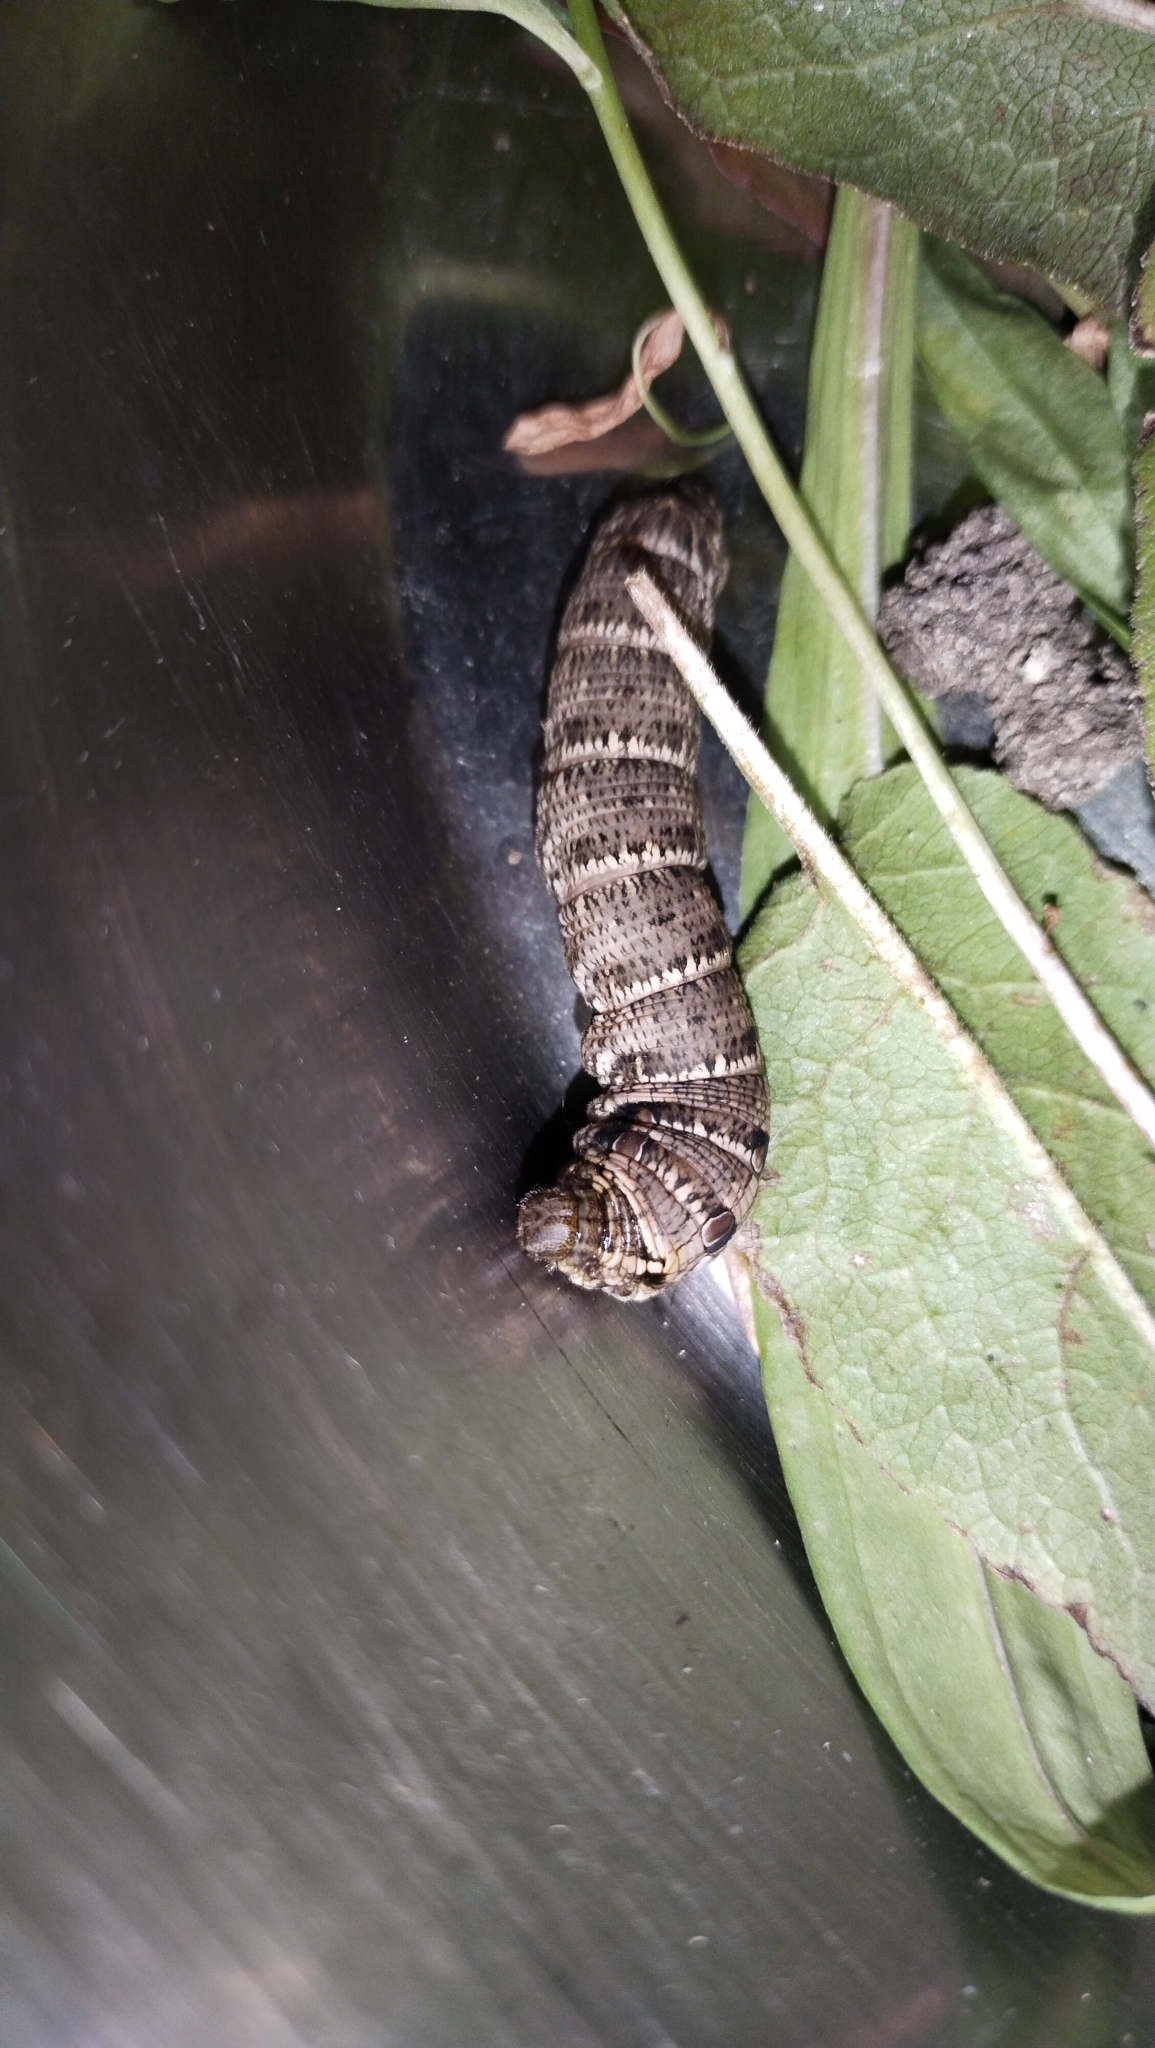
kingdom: Animalia
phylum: Arthropoda
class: Insecta
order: Lepidoptera
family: Sphingidae
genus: Deilephila
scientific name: Deilephila porcellus
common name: Small elephant hawk-moth
